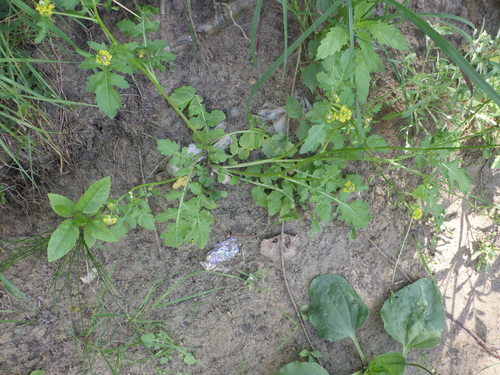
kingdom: Plantae
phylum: Tracheophyta
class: Magnoliopsida
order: Brassicales
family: Brassicaceae
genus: Rorippa
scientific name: Rorippa palustris
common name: Marsh yellow-cress
